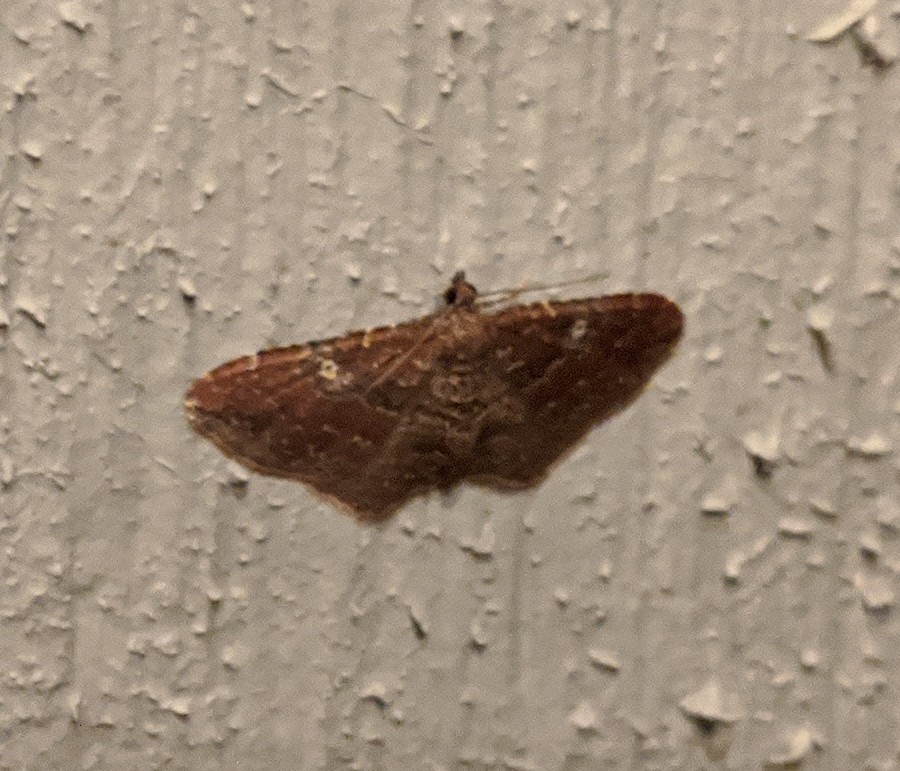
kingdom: Animalia
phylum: Arthropoda
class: Insecta
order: Lepidoptera
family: Geometridae
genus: Orthonama
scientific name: Orthonama obstipata
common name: The gem
